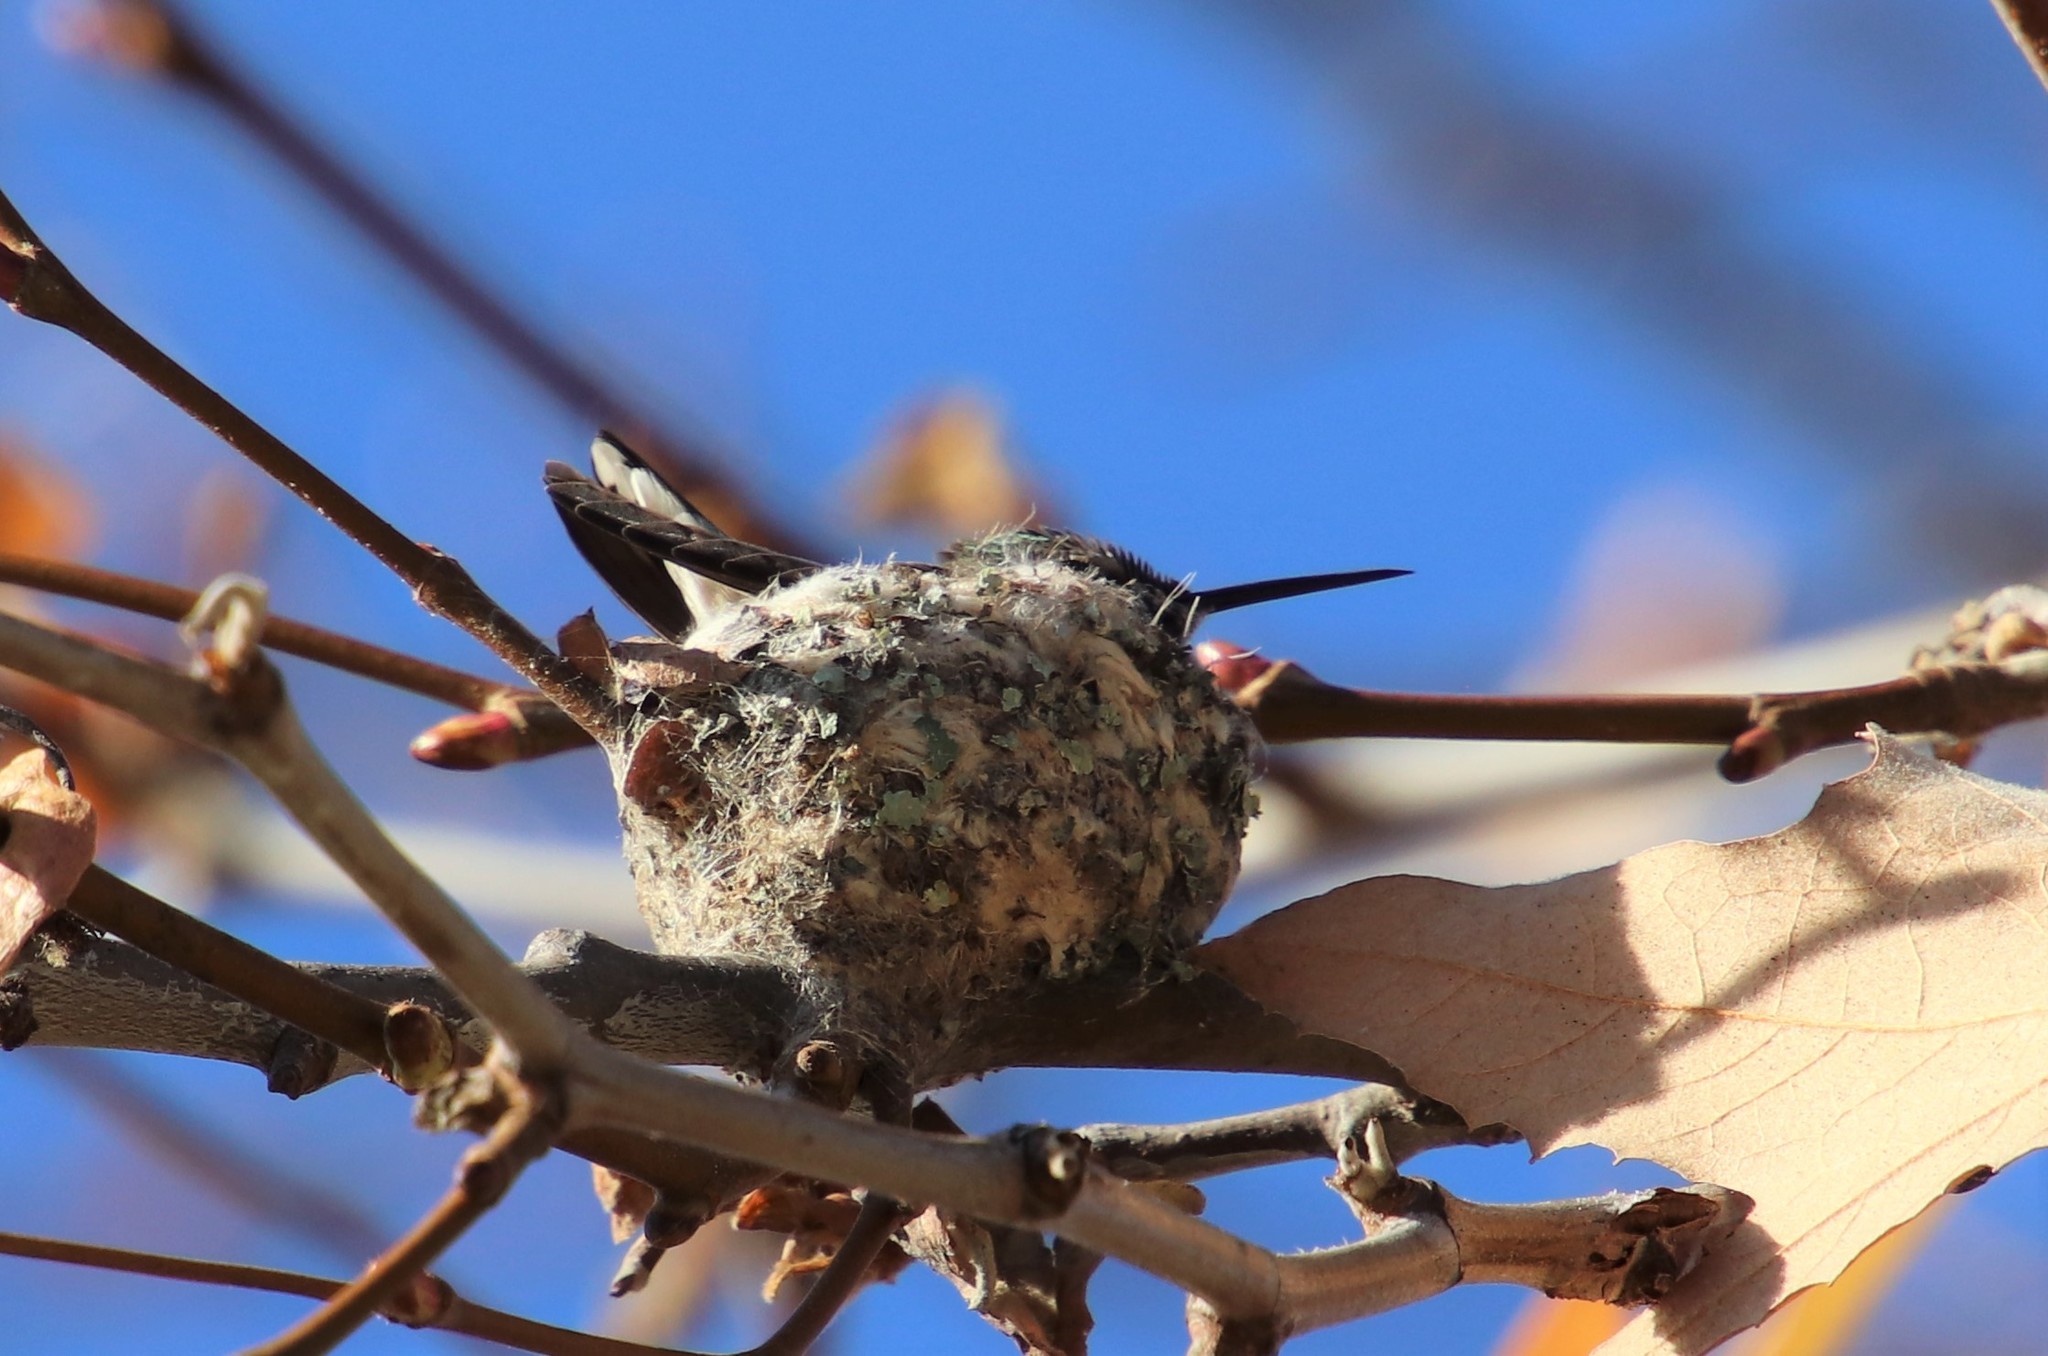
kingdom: Animalia
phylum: Chordata
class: Aves
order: Apodiformes
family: Trochilidae
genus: Calypte
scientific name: Calypte anna
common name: Anna's hummingbird
